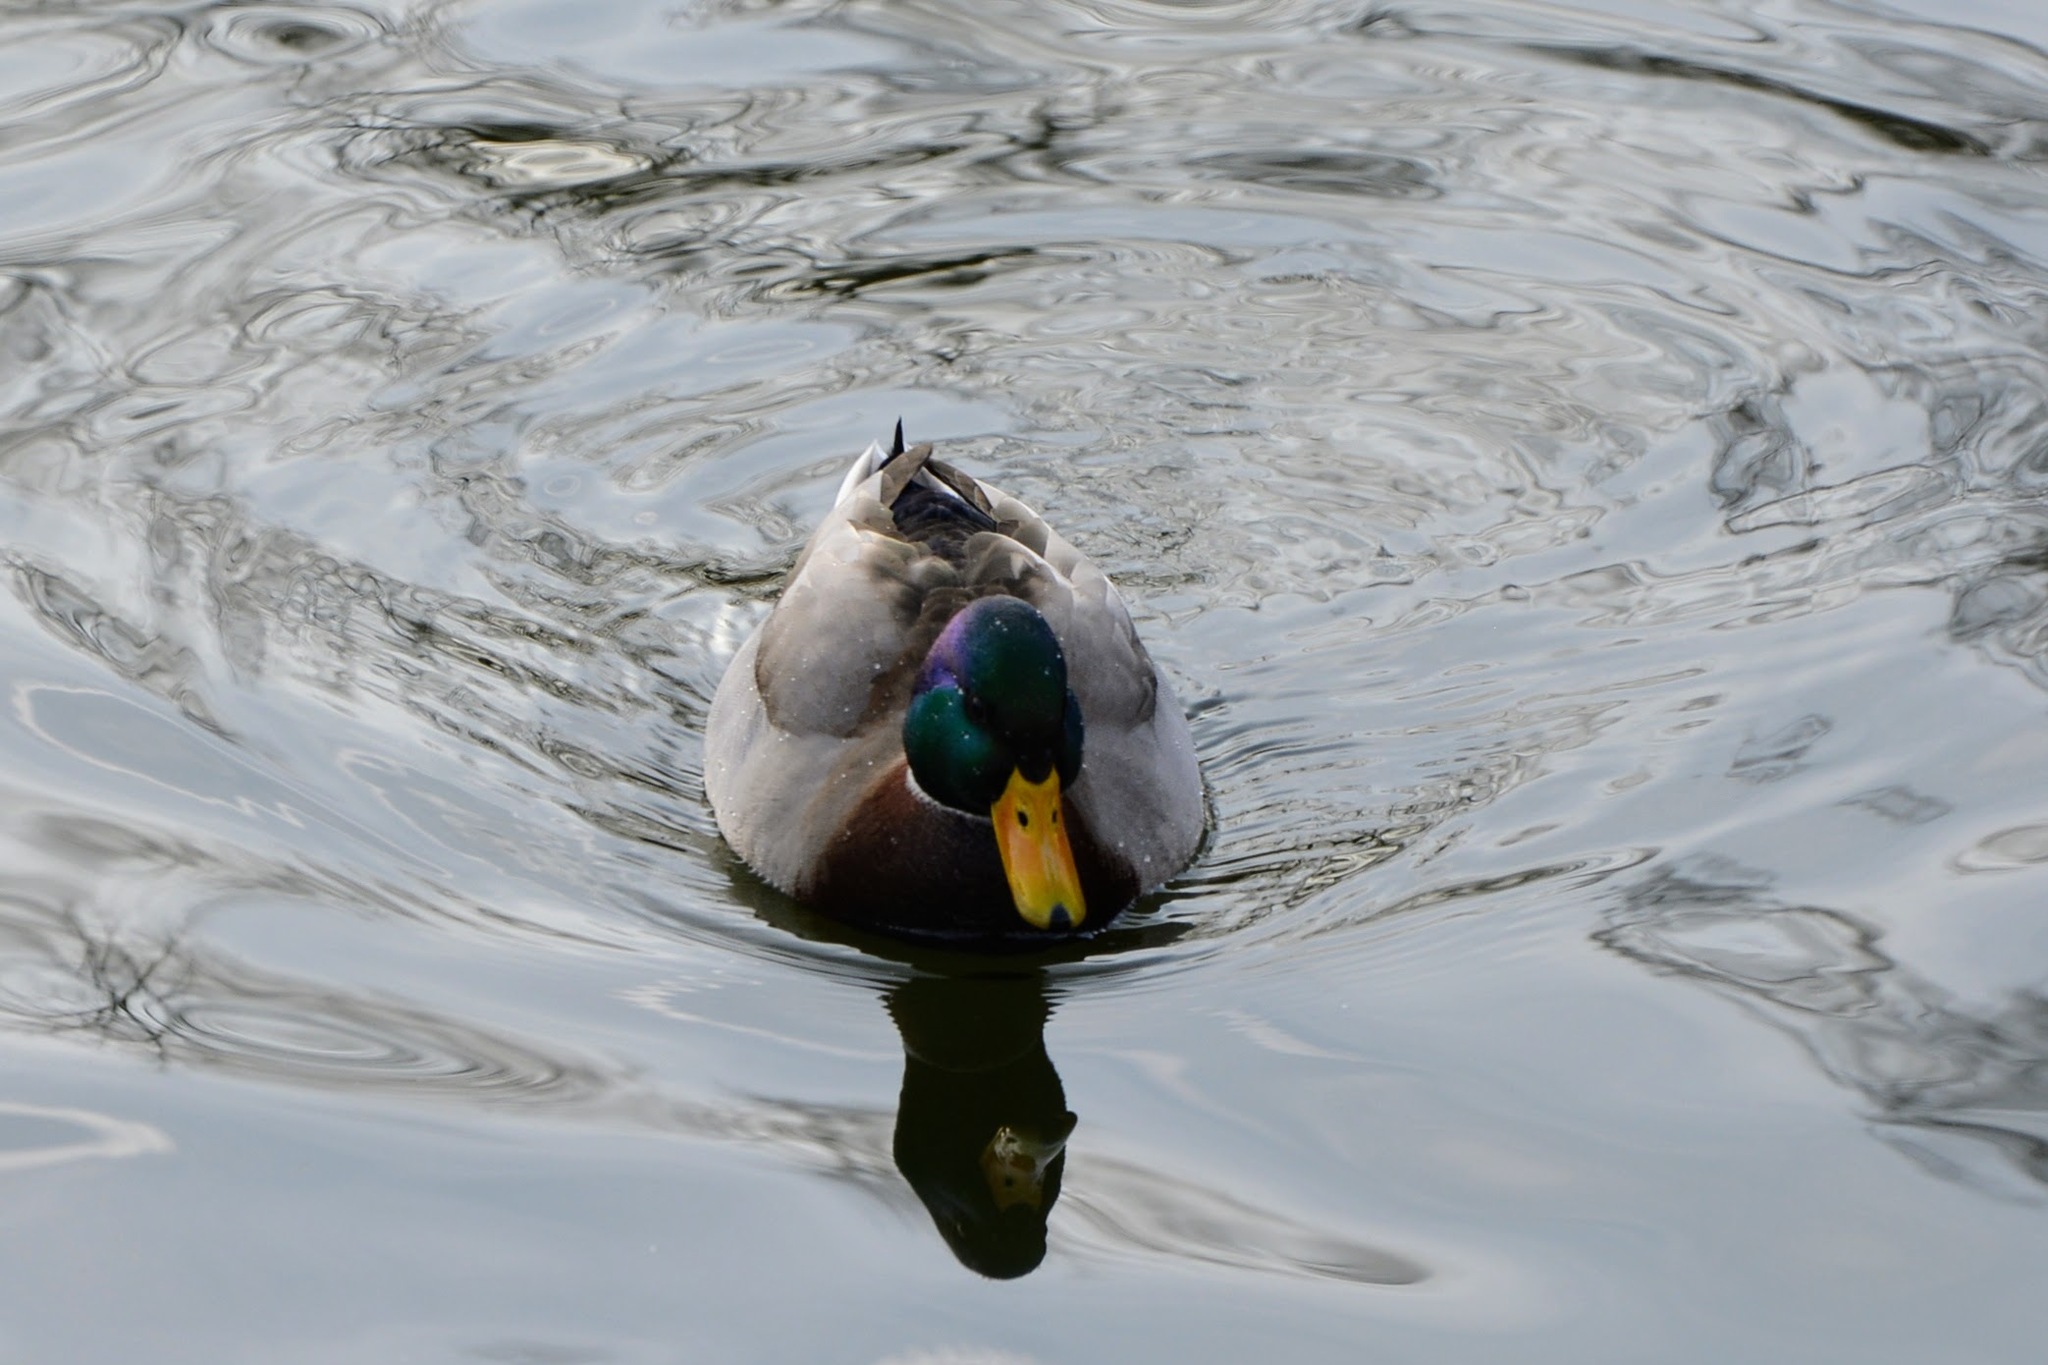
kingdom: Animalia
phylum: Chordata
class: Aves
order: Anseriformes
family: Anatidae
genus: Anas
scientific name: Anas platyrhynchos
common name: Mallard
